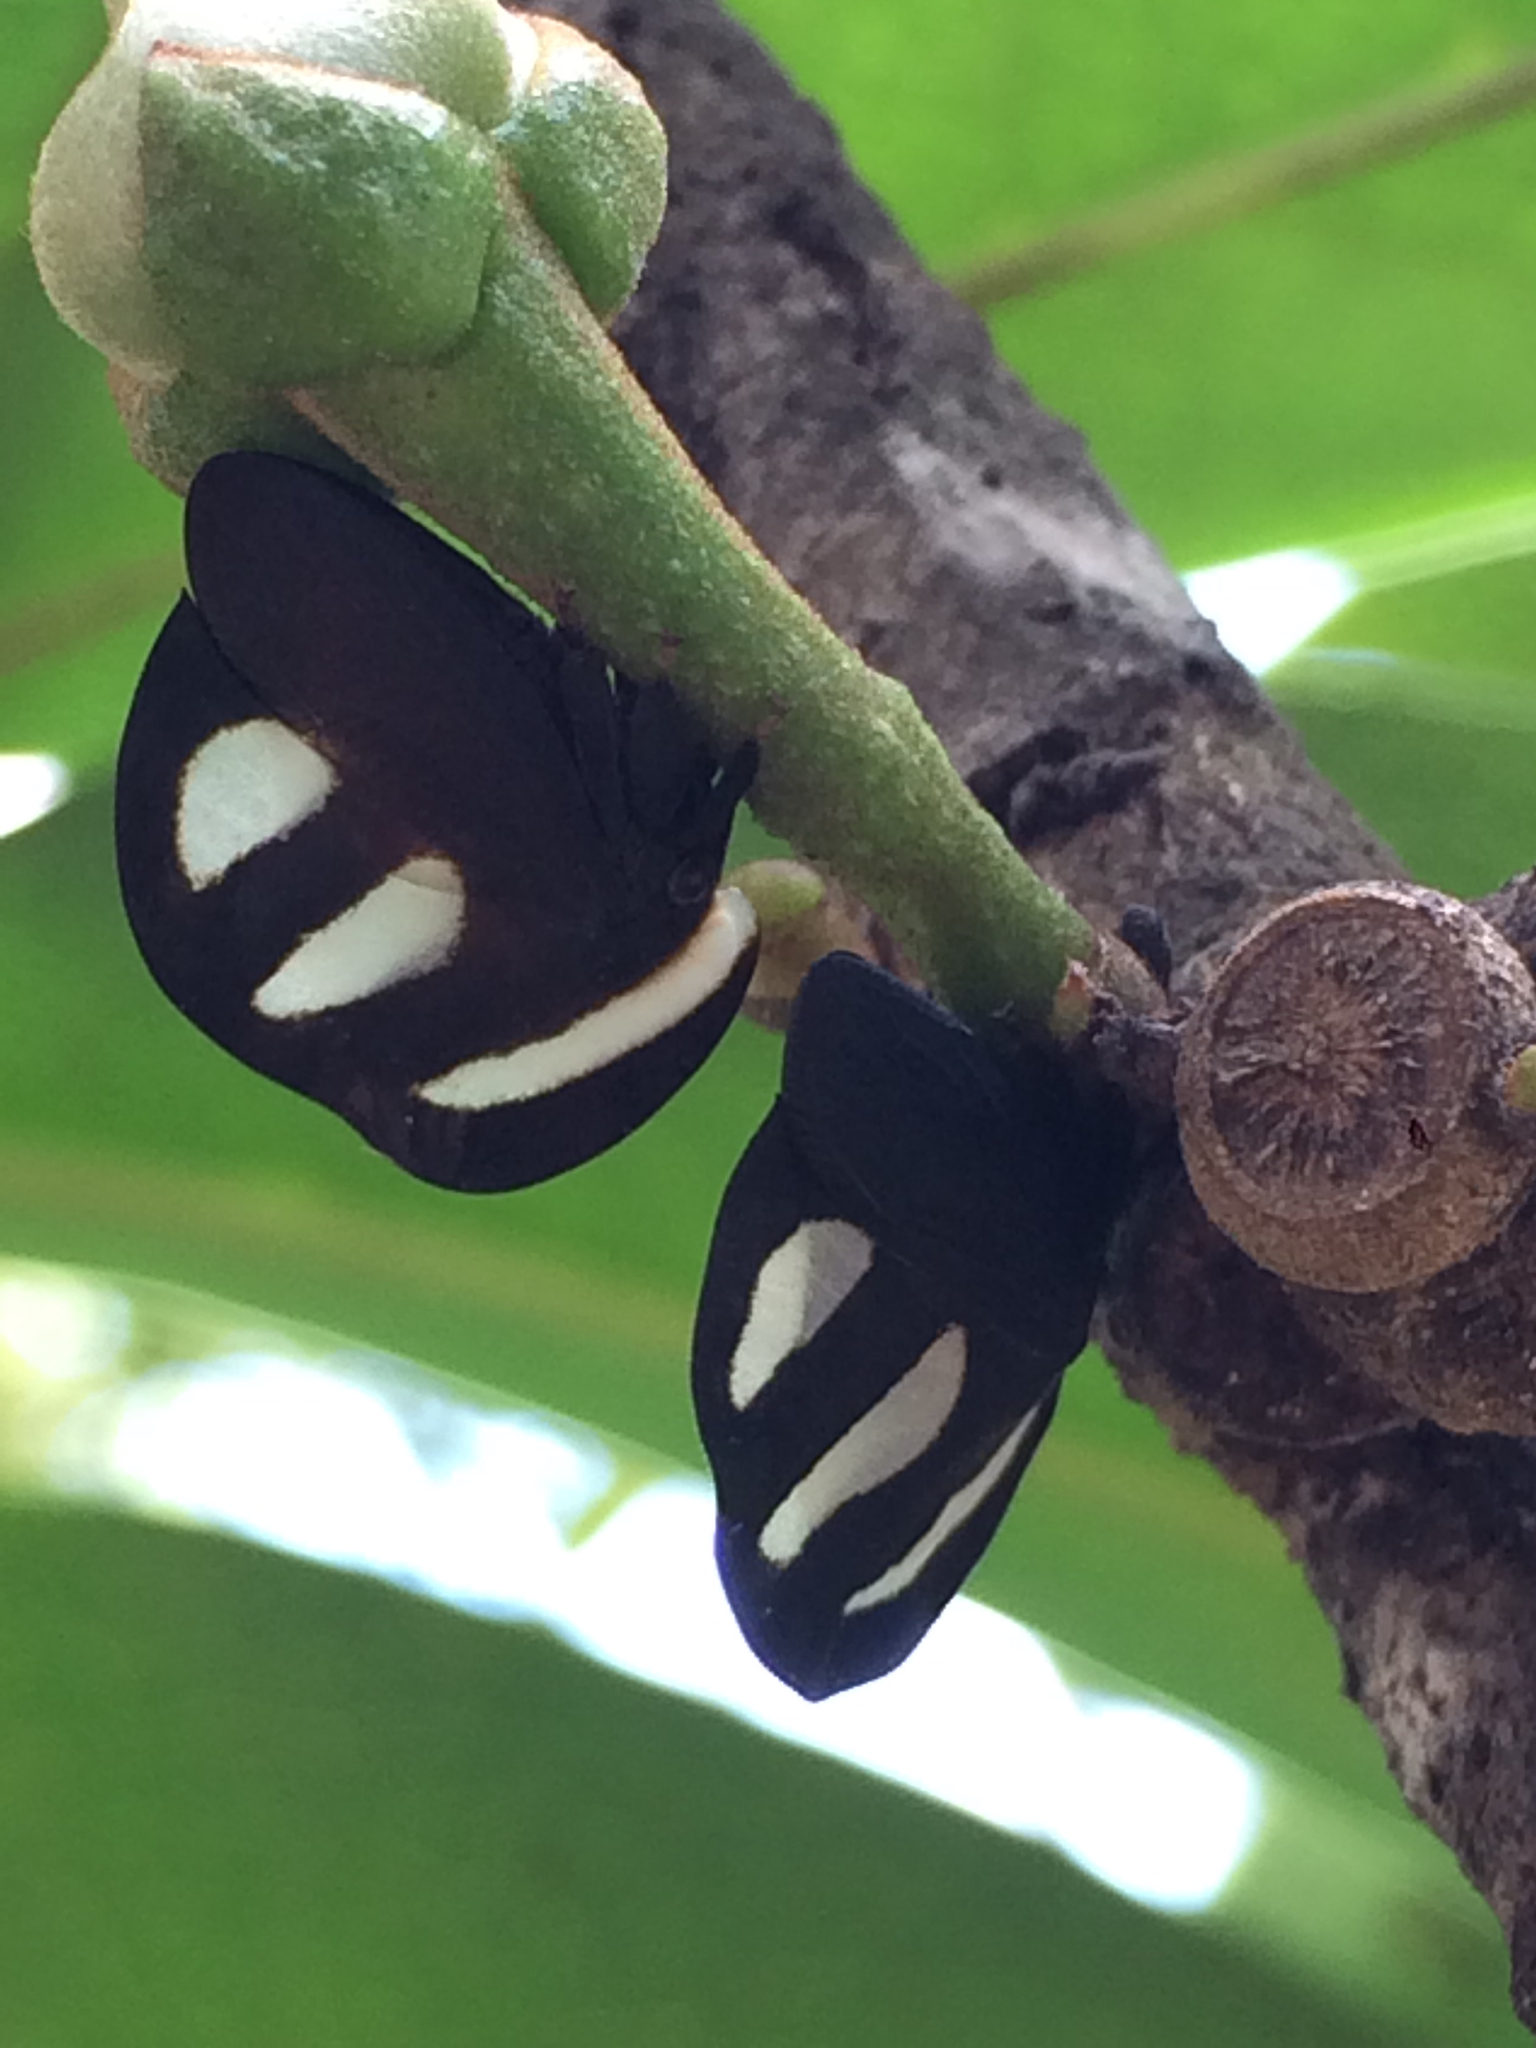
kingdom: Animalia
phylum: Arthropoda
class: Insecta
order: Hemiptera
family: Membracidae
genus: Membracis
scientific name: Membracis
